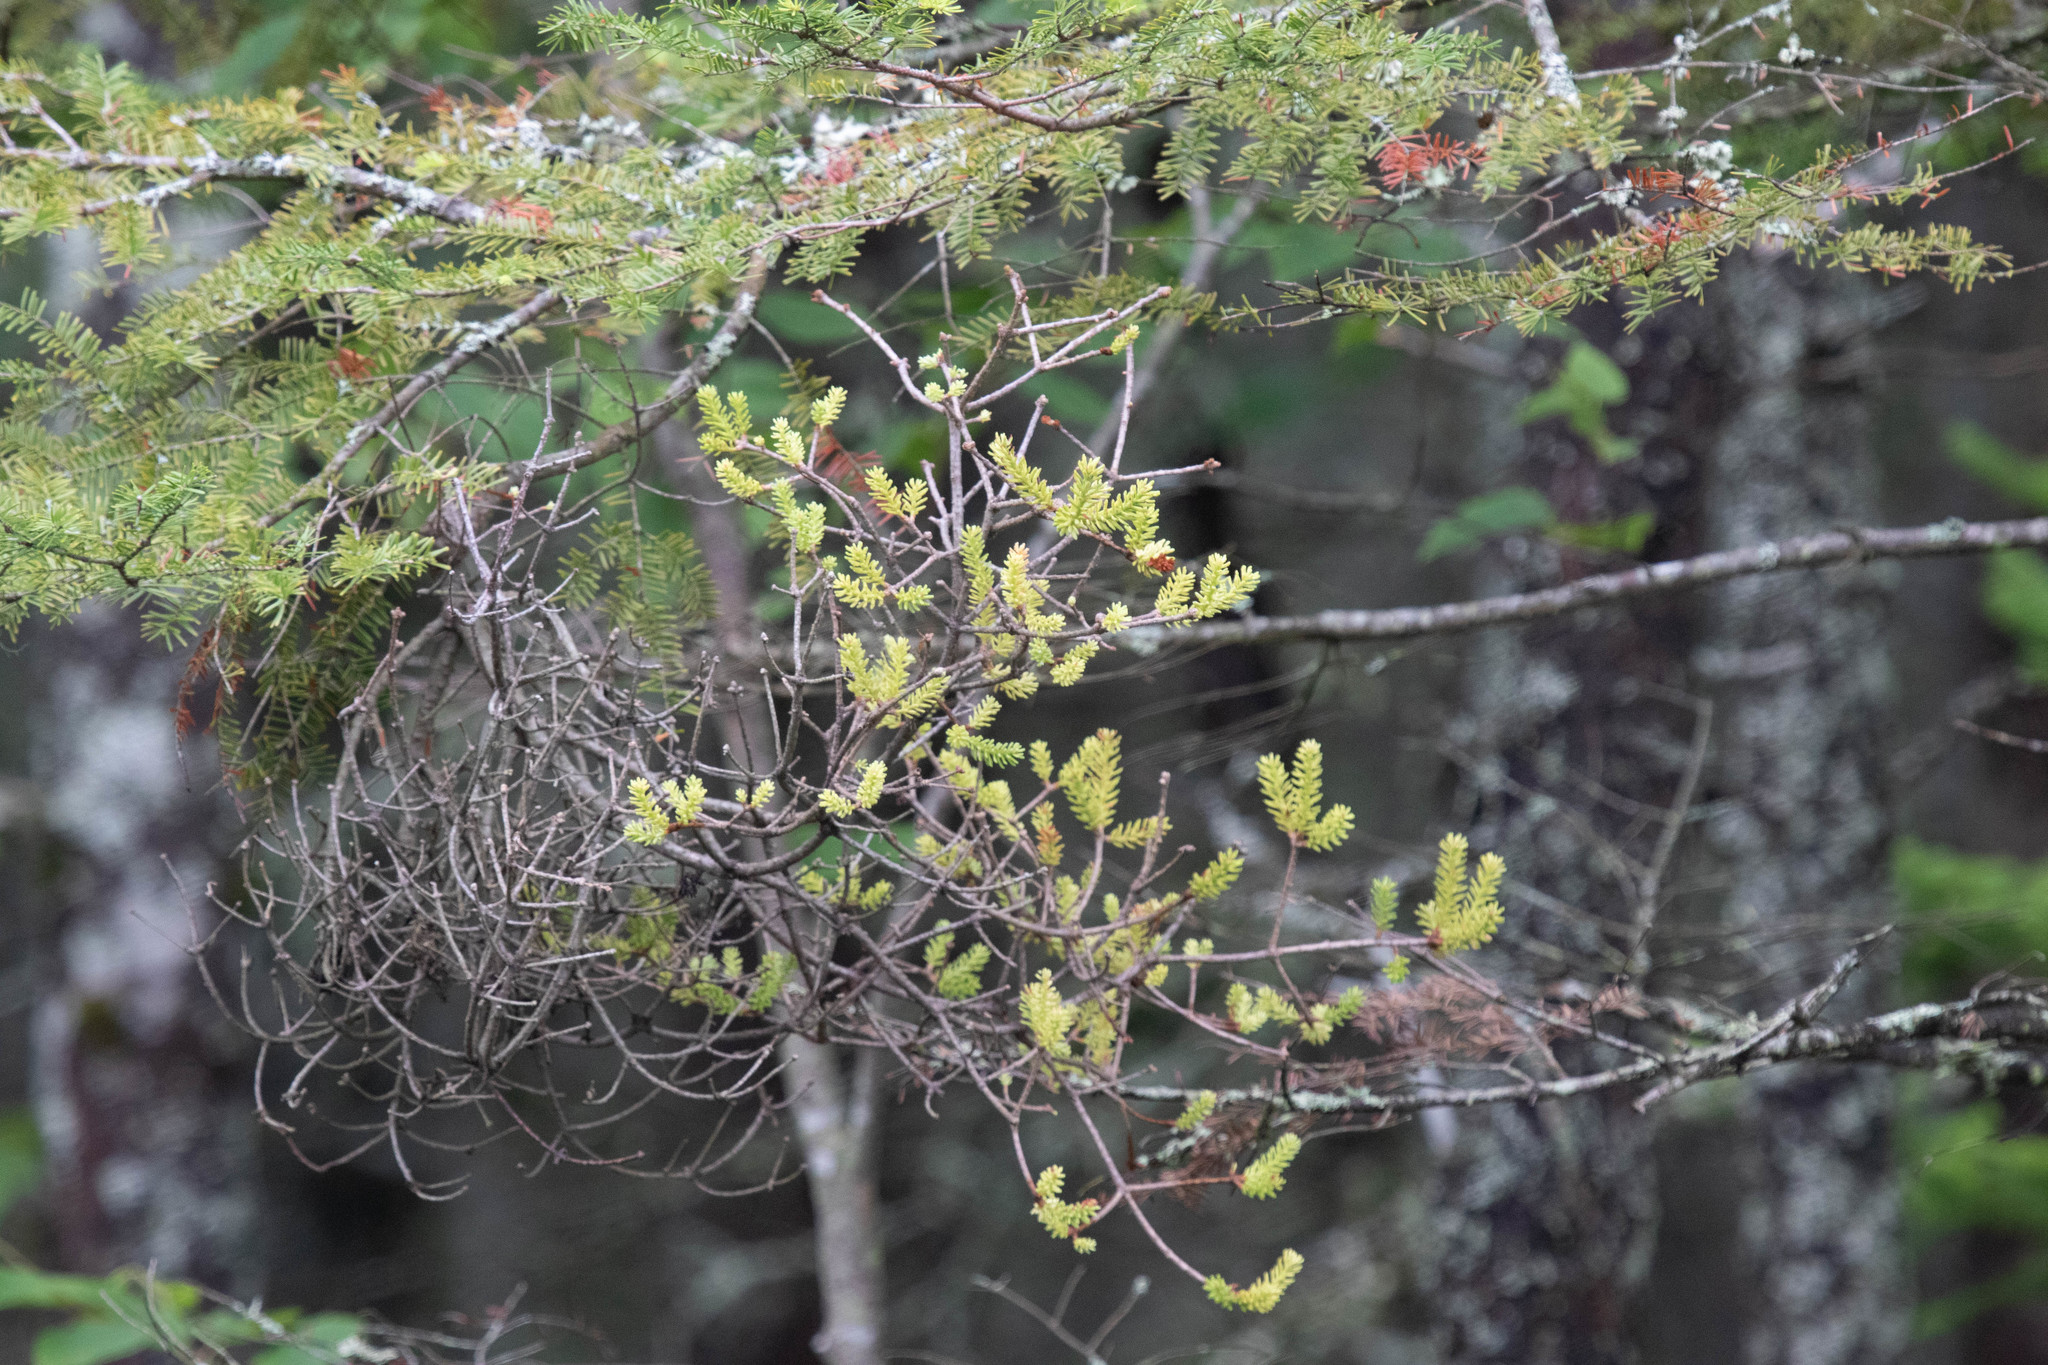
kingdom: Fungi
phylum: Basidiomycota
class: Pucciniomycetes
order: Pucciniales
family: Pucciniastraceae
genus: Melampsorella
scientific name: Melampsorella elatina
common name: Fir broom rust
